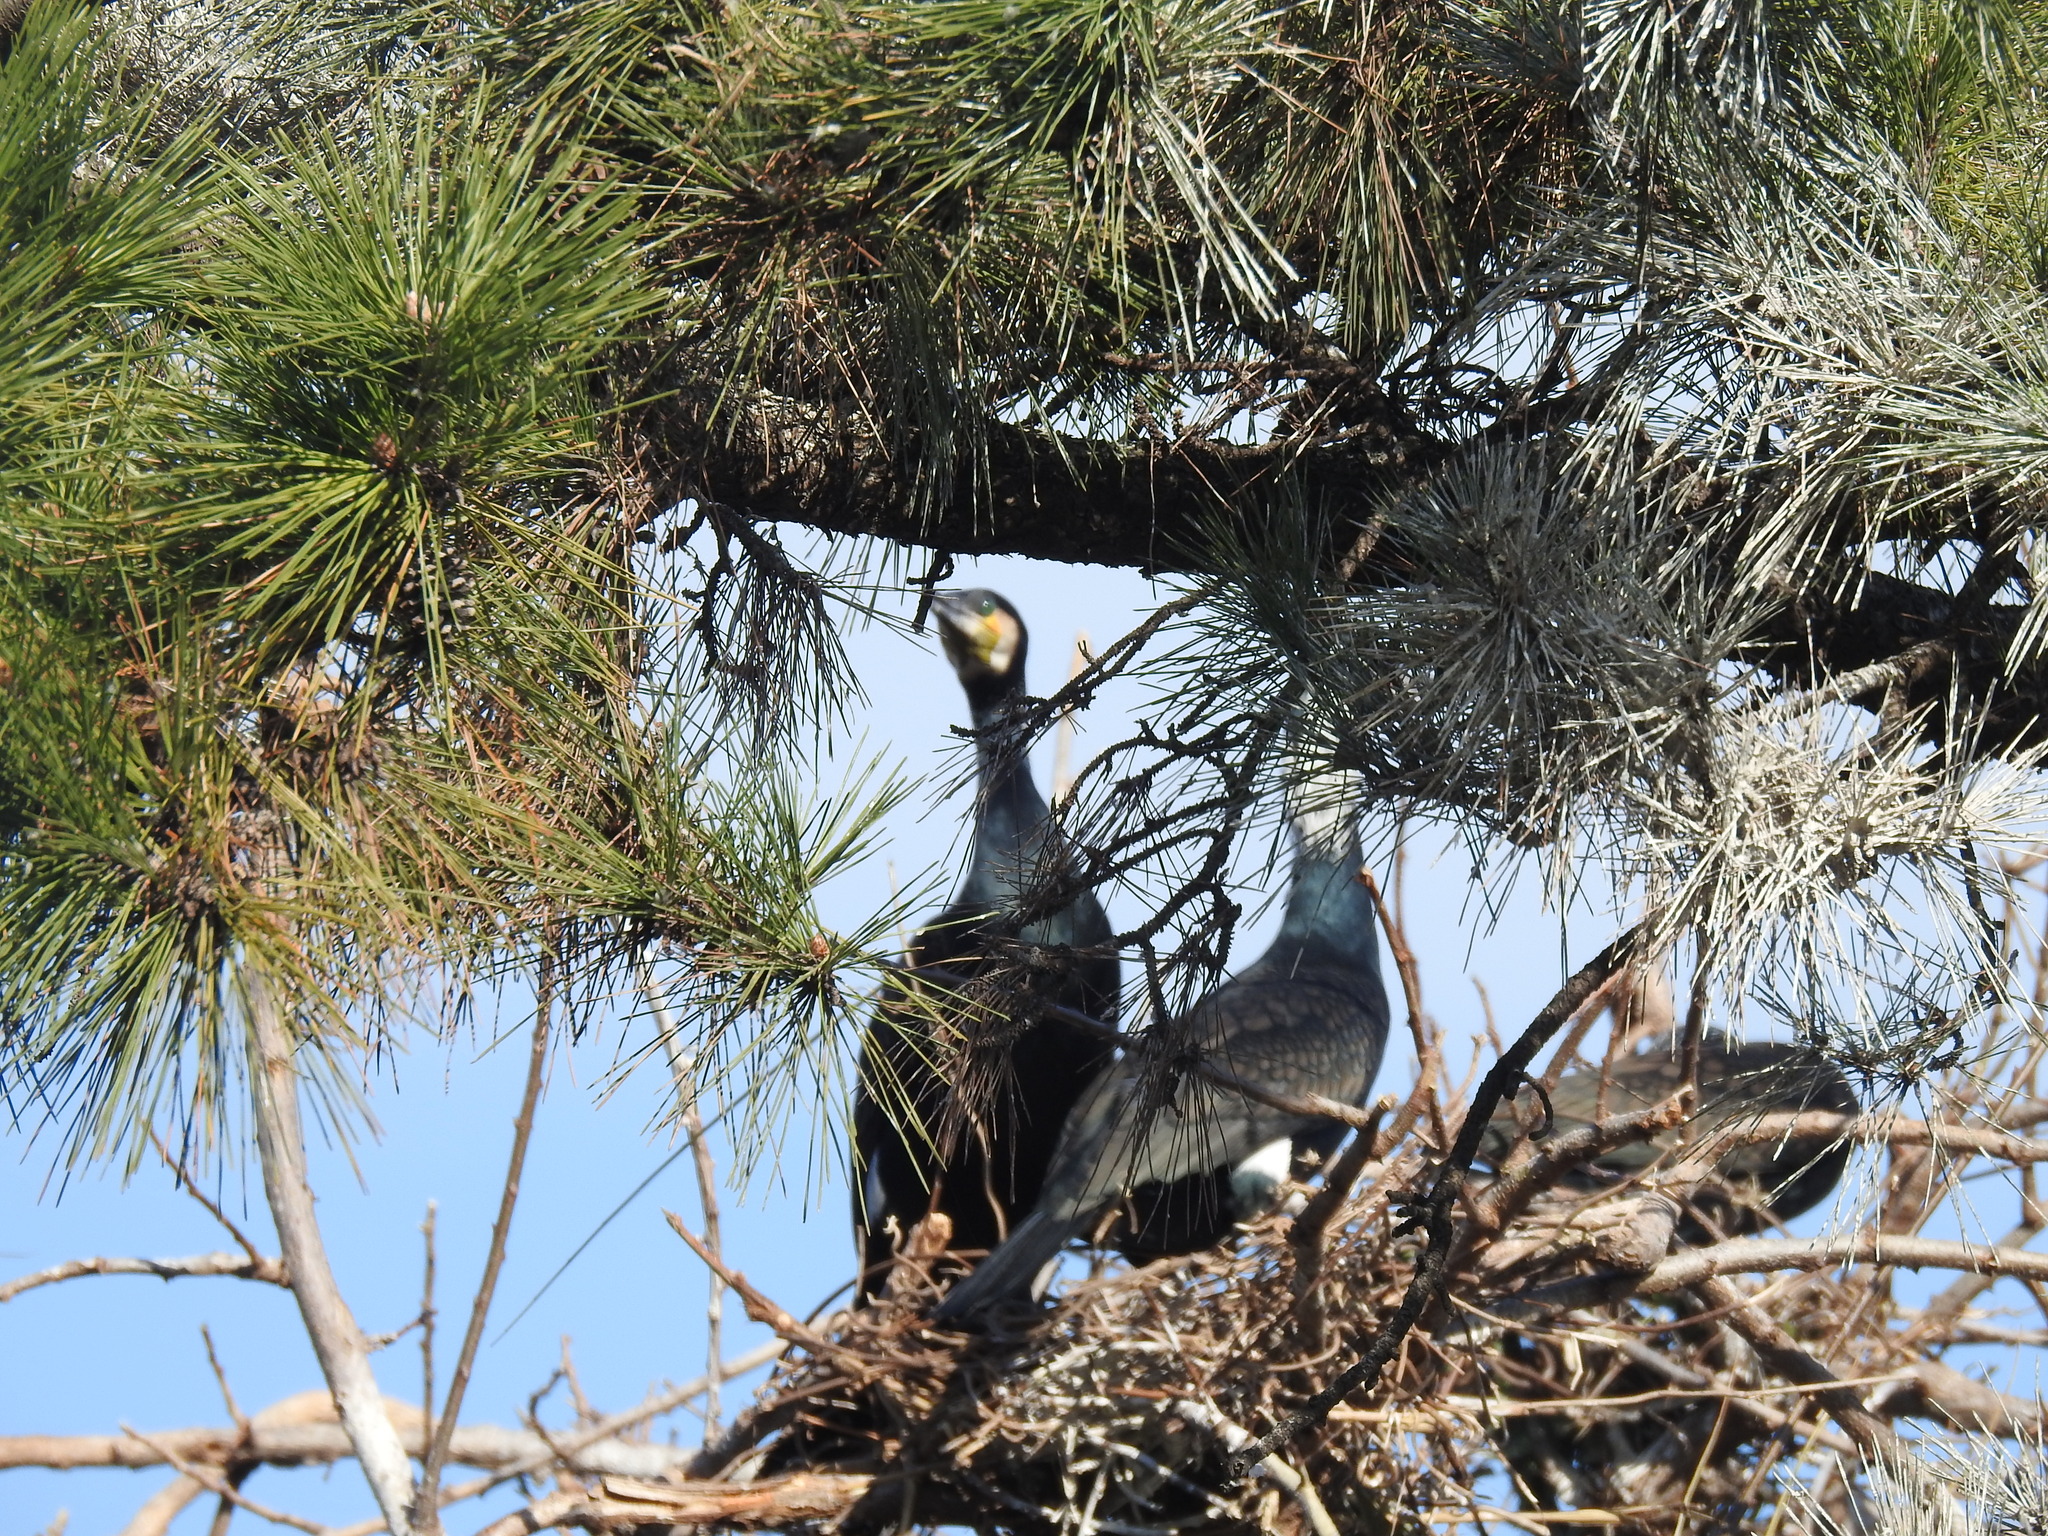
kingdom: Animalia
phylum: Chordata
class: Aves
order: Suliformes
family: Phalacrocoracidae
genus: Phalacrocorax
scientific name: Phalacrocorax carbo
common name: Great cormorant
